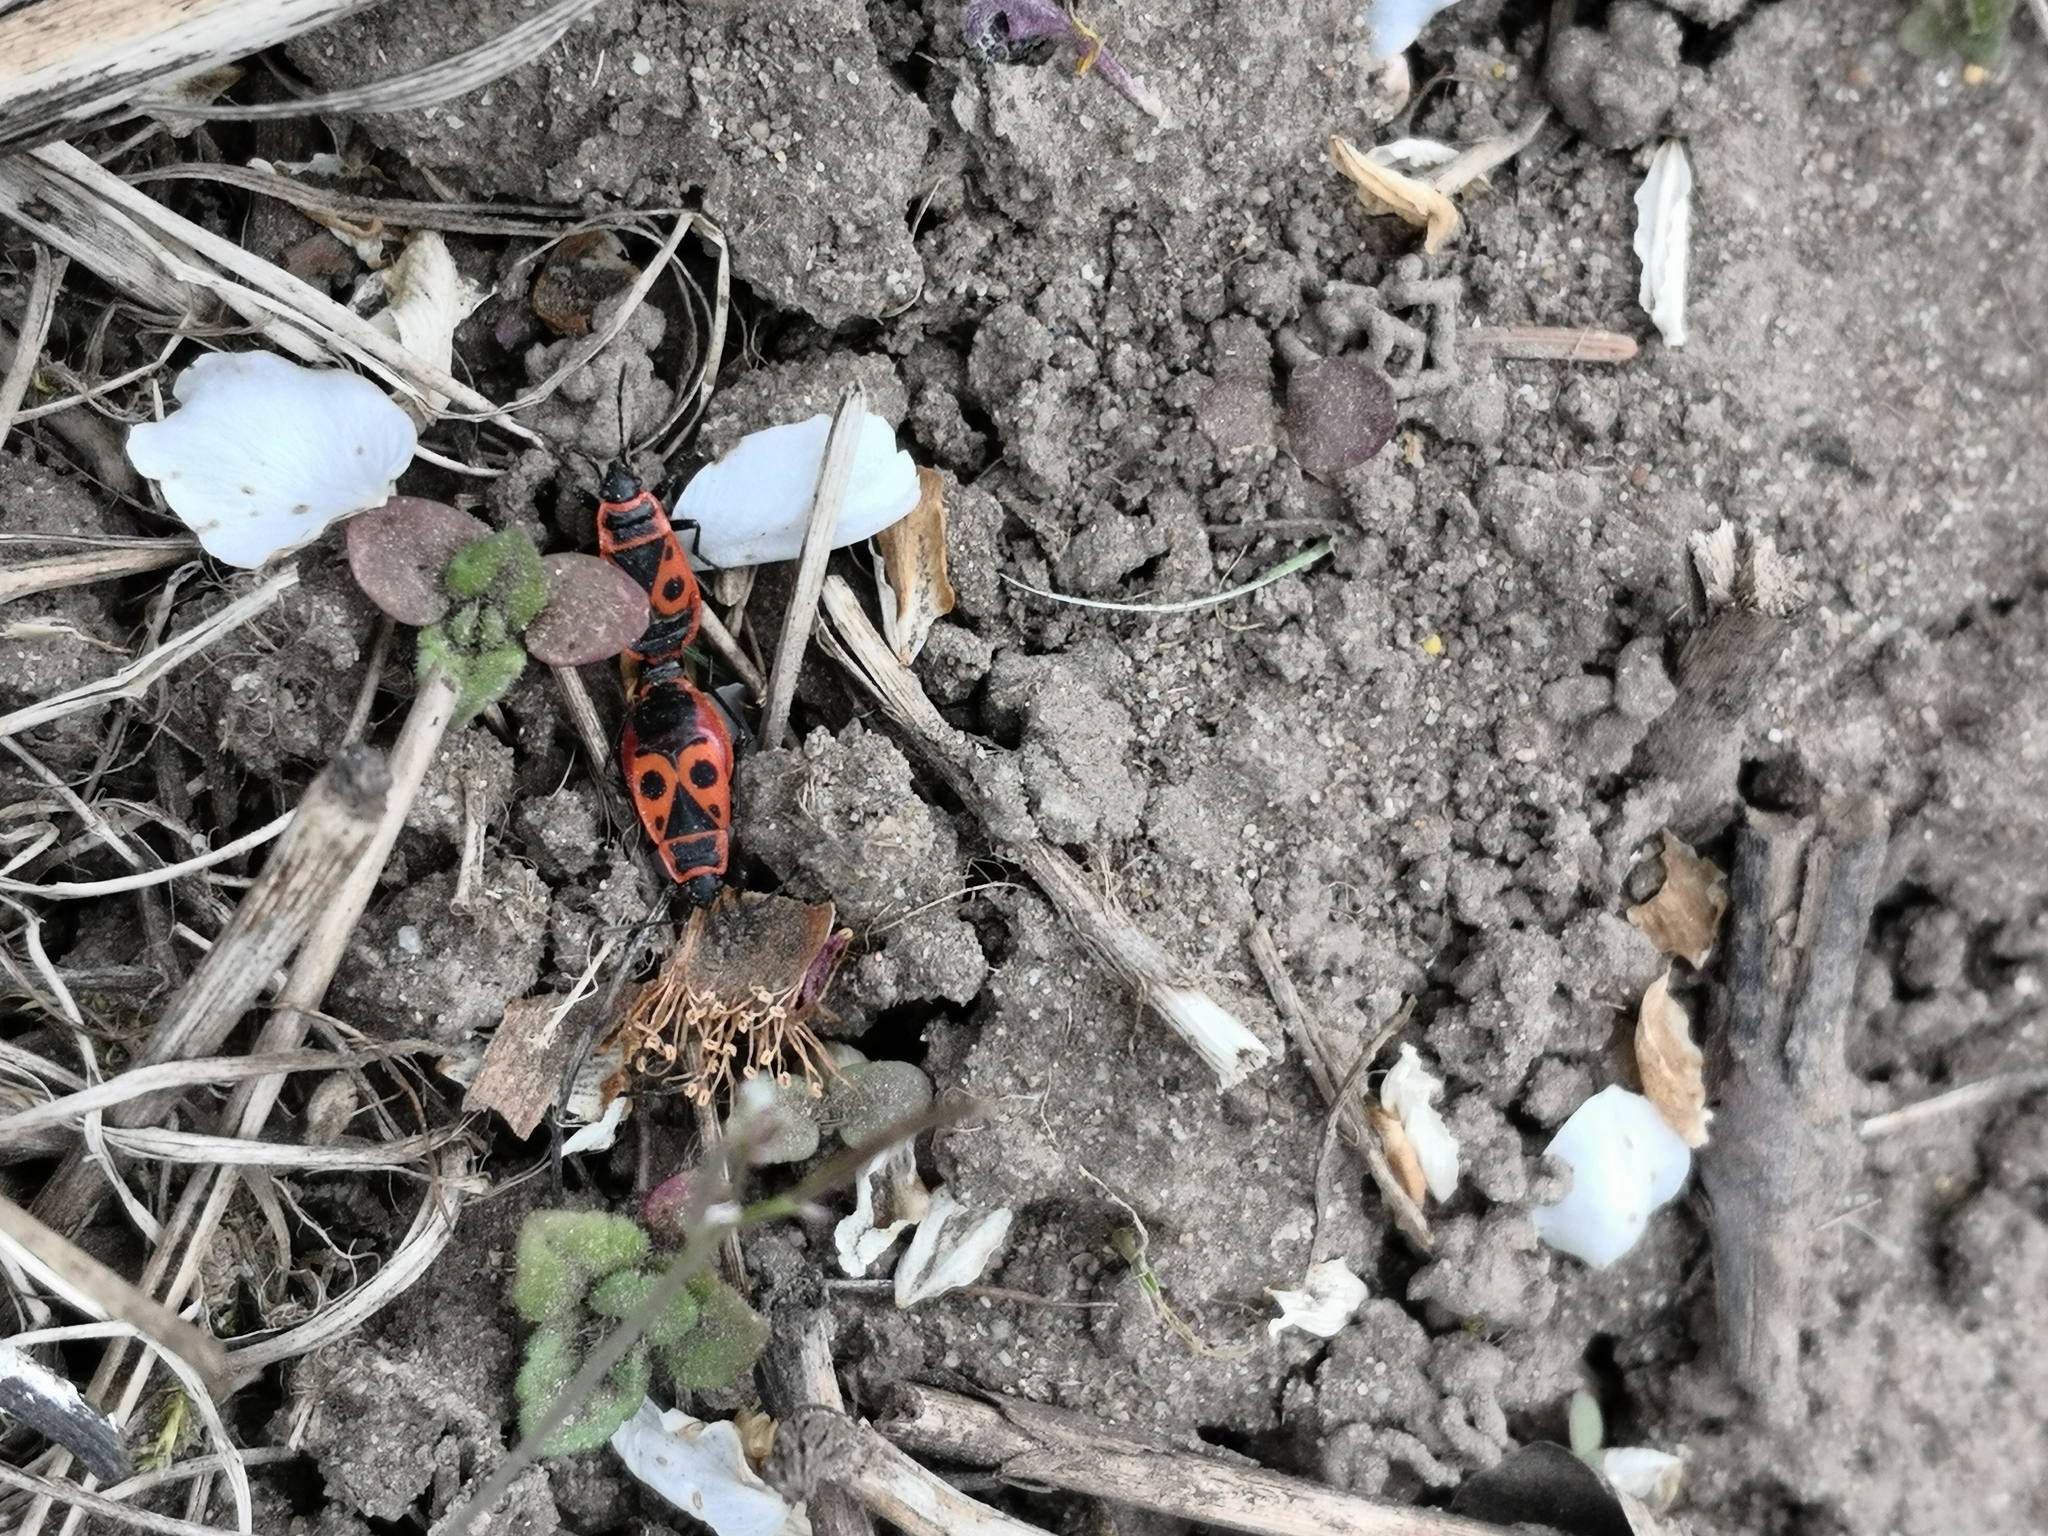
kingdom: Animalia
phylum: Arthropoda
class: Insecta
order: Hemiptera
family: Pyrrhocoridae
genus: Pyrrhocoris
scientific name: Pyrrhocoris apterus
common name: Firebug
